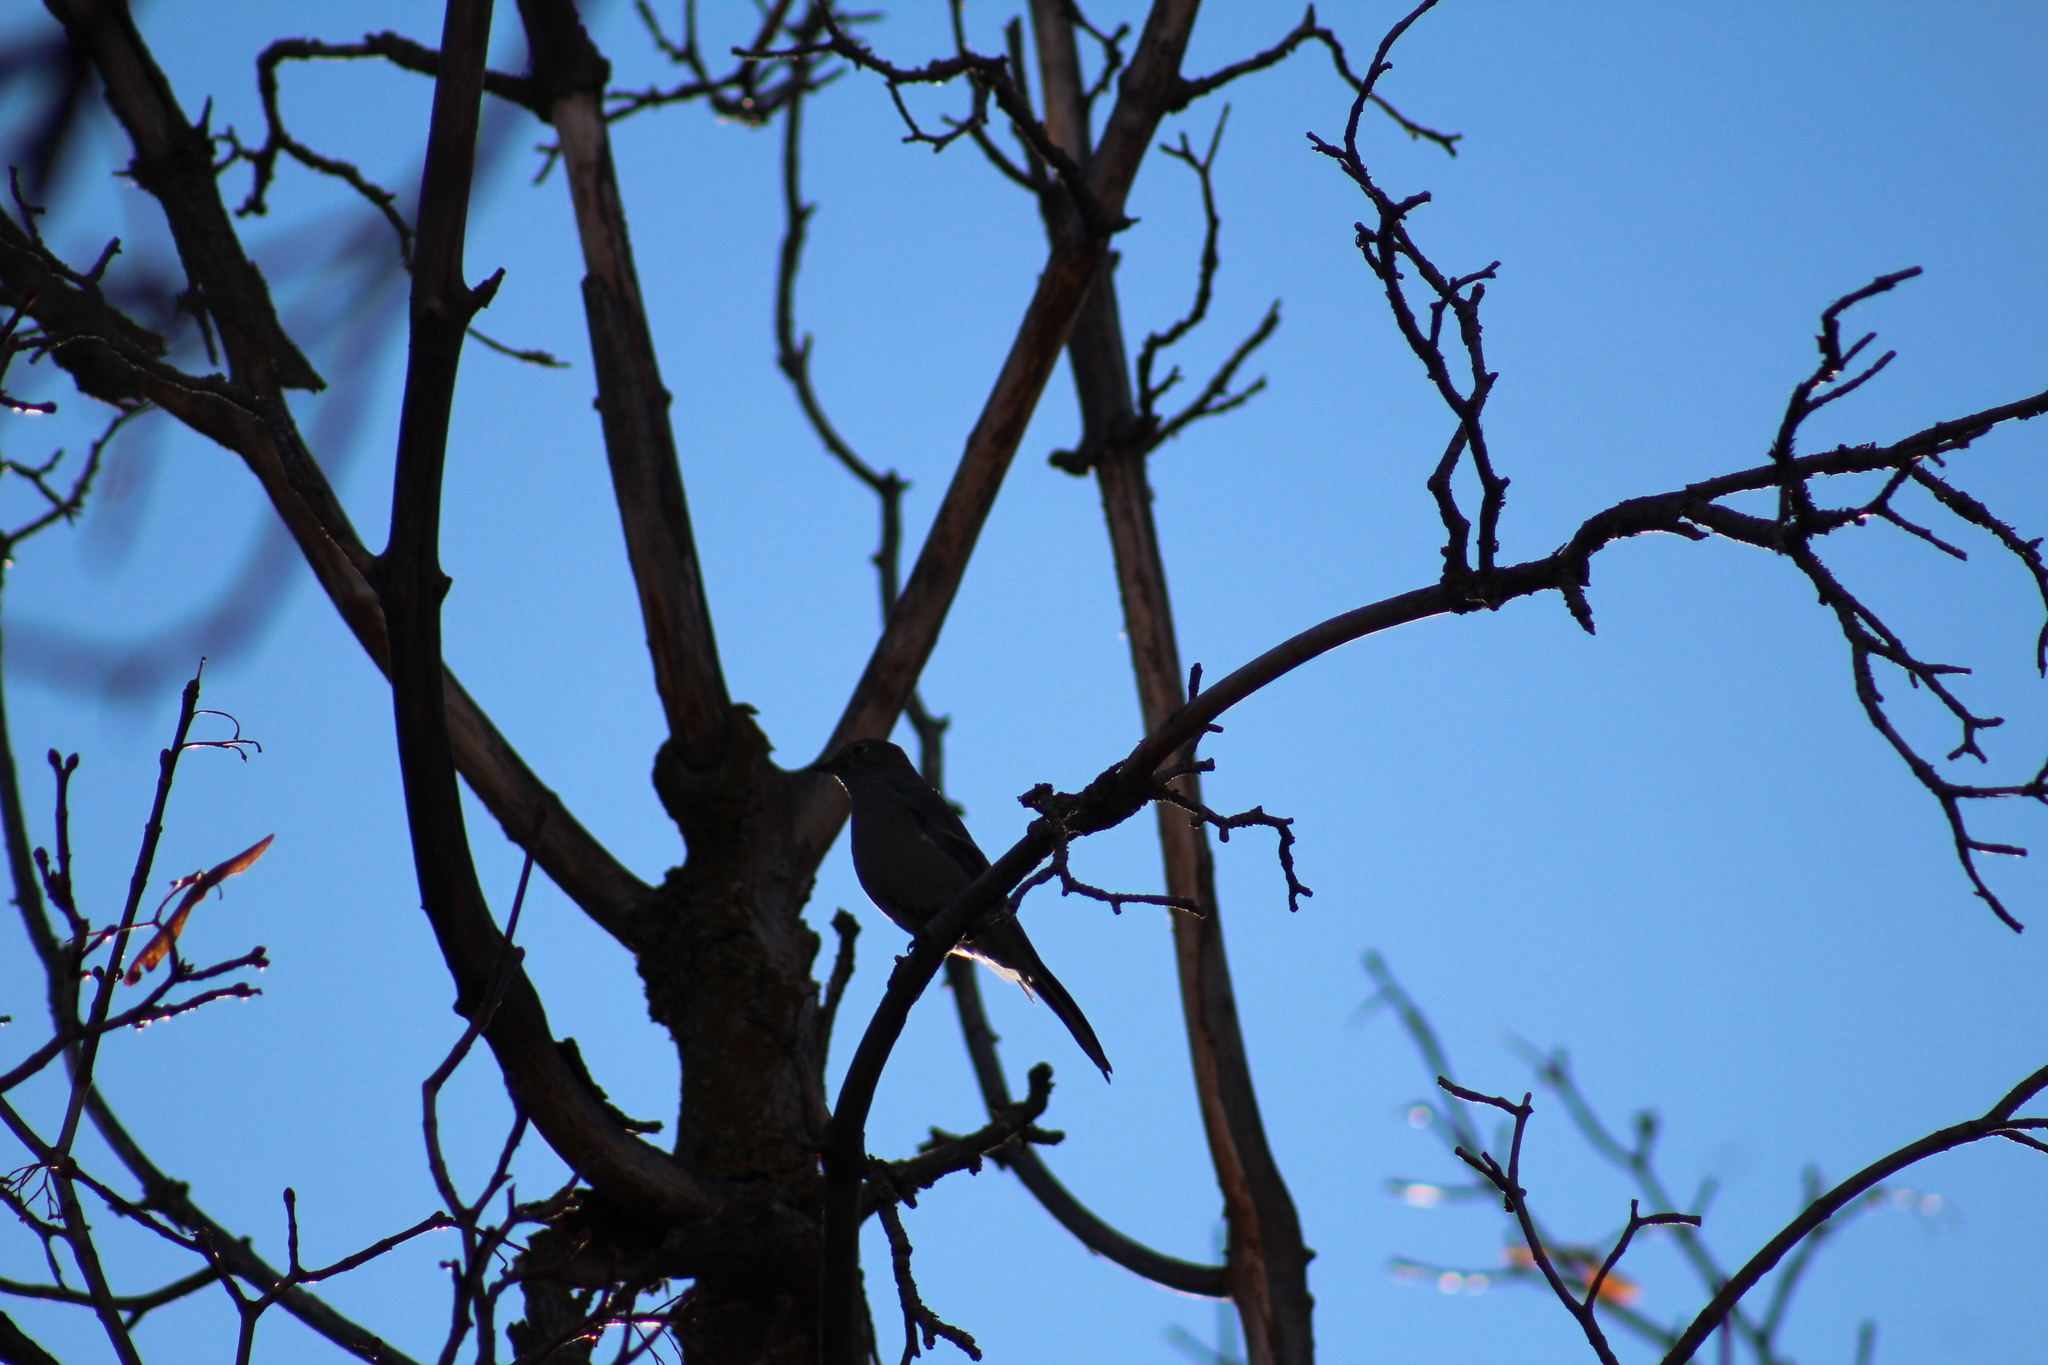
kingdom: Animalia
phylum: Chordata
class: Aves
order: Passeriformes
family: Turdidae
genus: Myadestes
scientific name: Myadestes townsendi
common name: Townsend's solitaire
